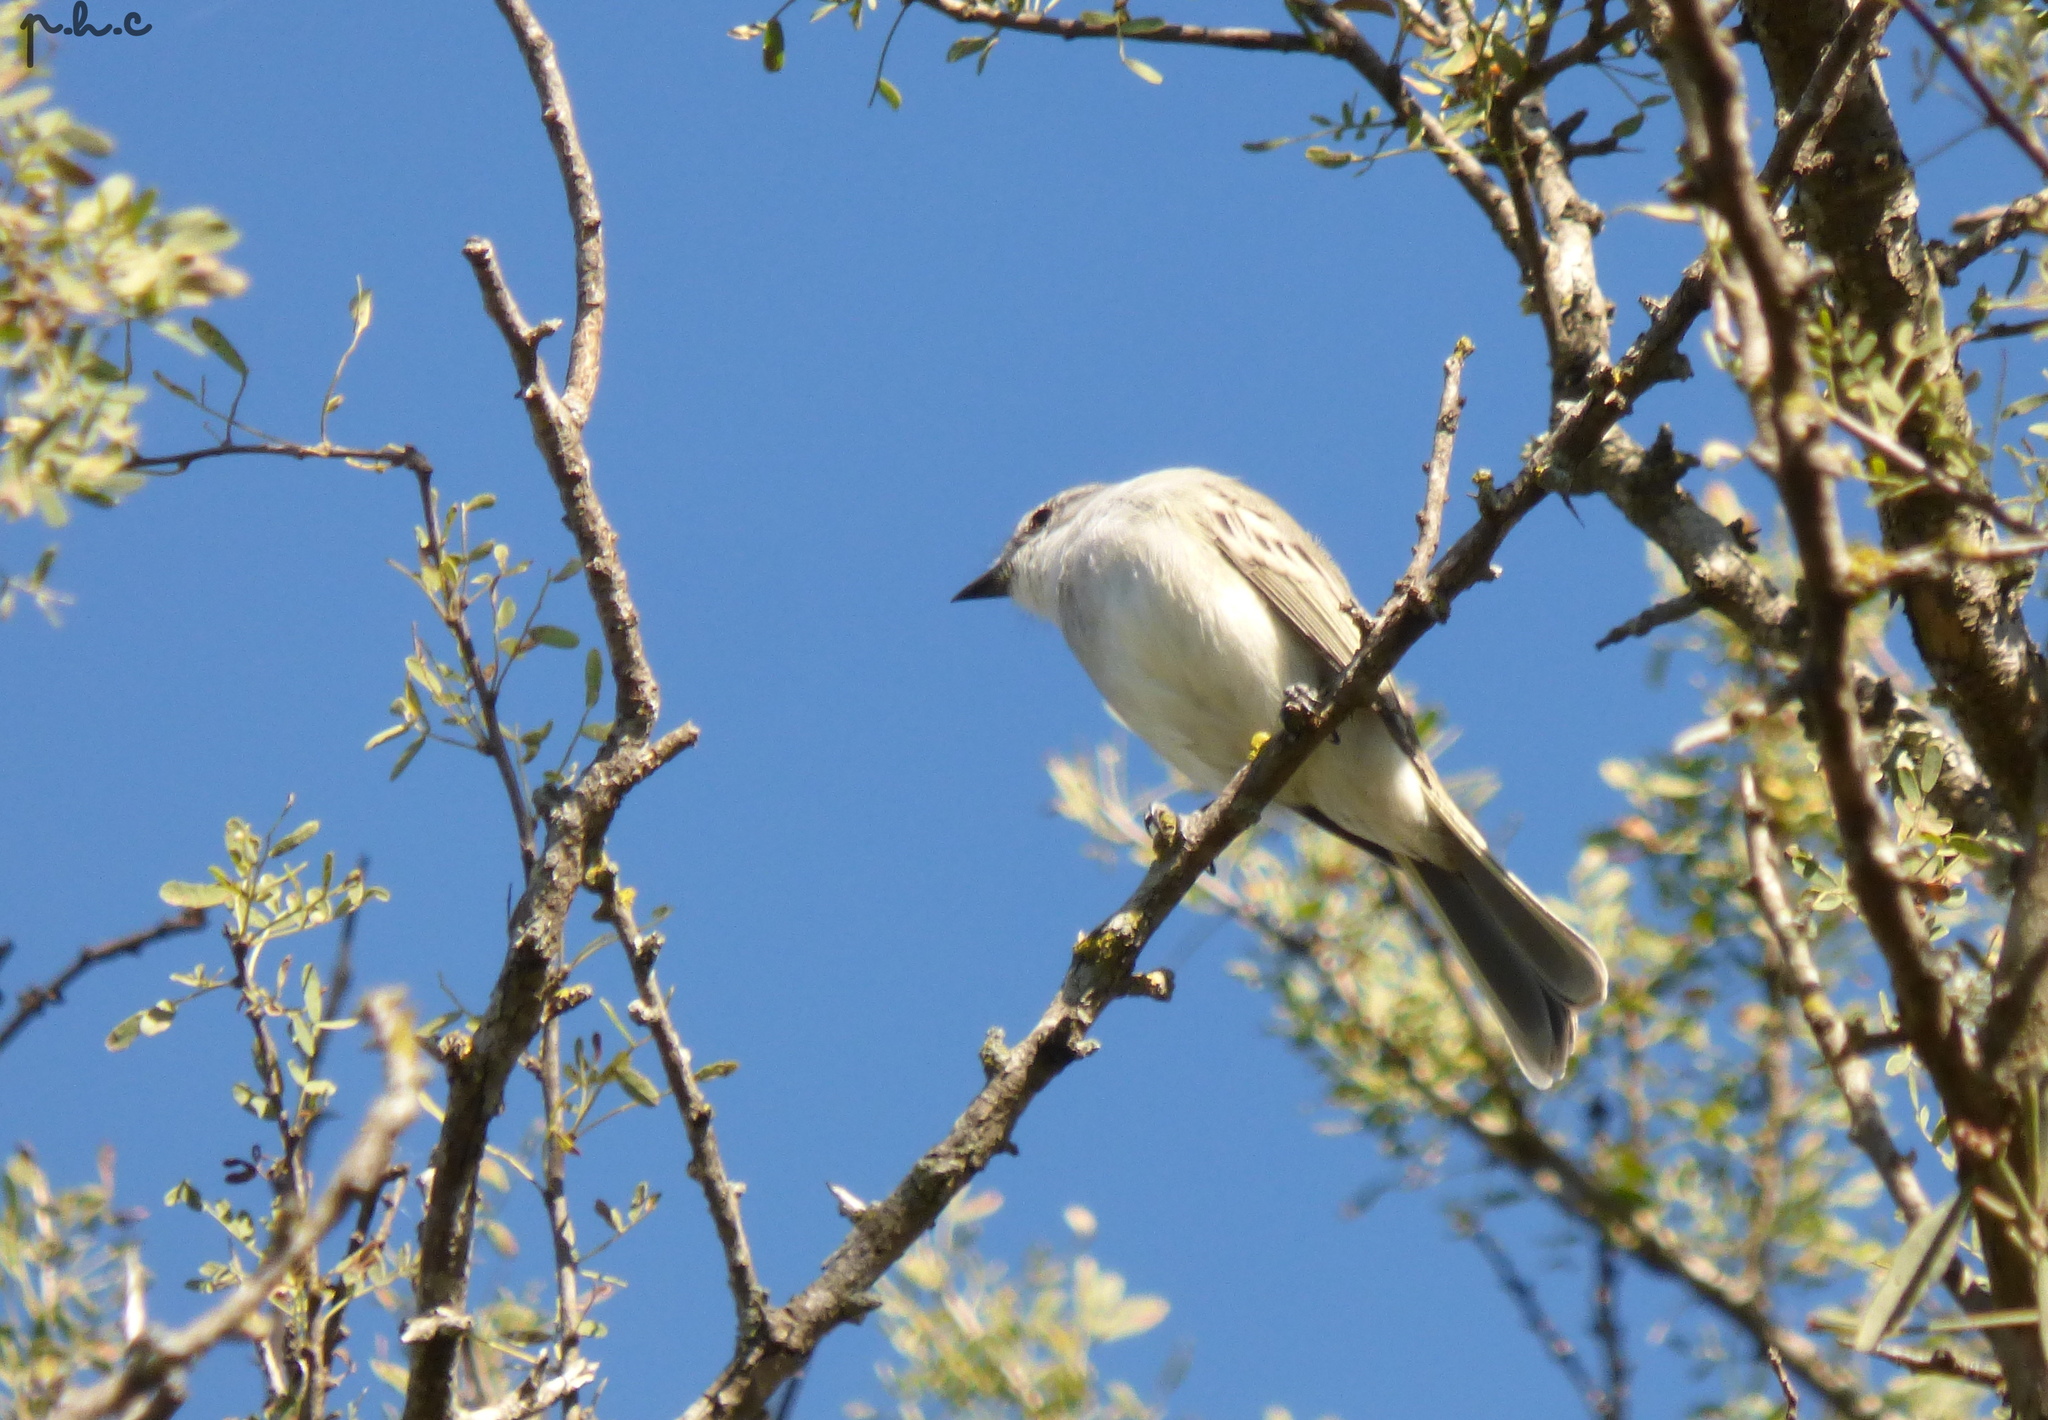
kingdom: Animalia
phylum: Chordata
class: Aves
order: Passeriformes
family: Tyrannidae
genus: Suiriri
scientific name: Suiriri suiriri
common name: Suiriri flycatcher
